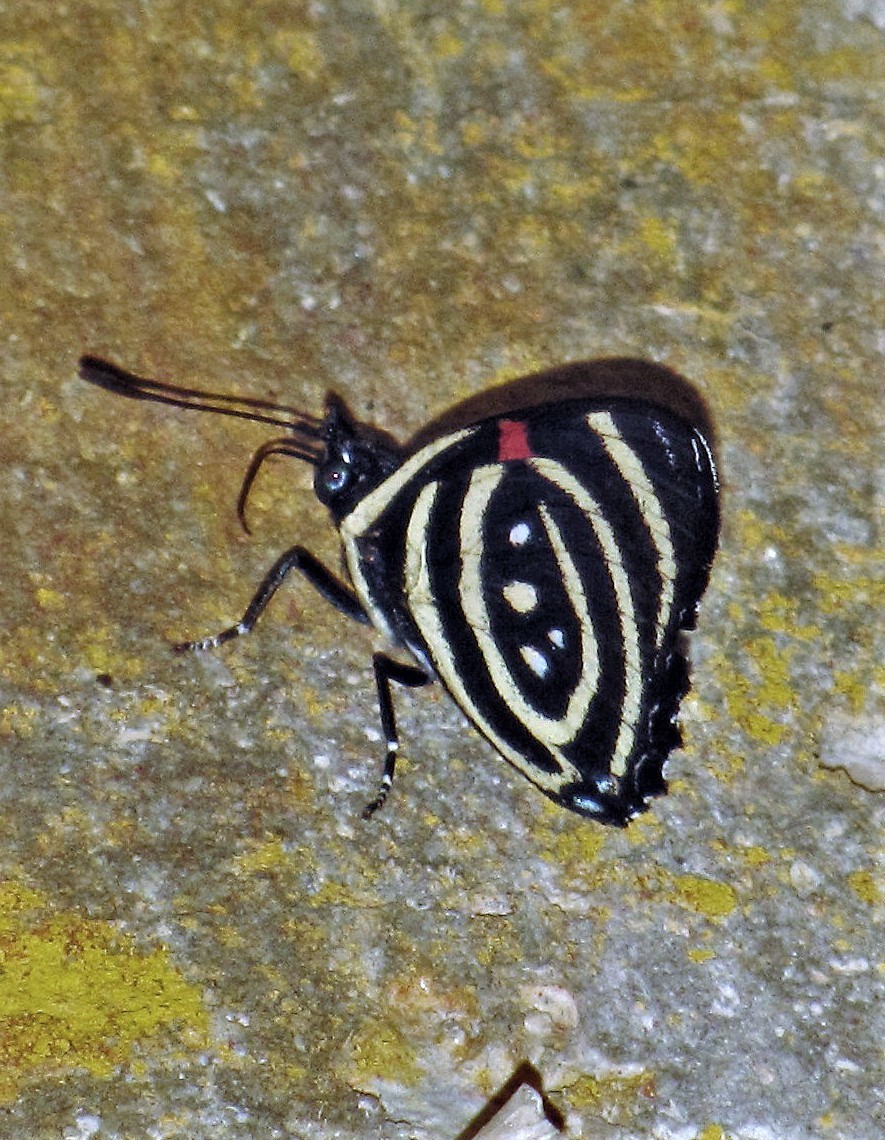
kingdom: Animalia
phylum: Arthropoda
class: Insecta
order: Lepidoptera
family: Nymphalidae
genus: Catagramma
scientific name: Catagramma Callicore hydaspes
